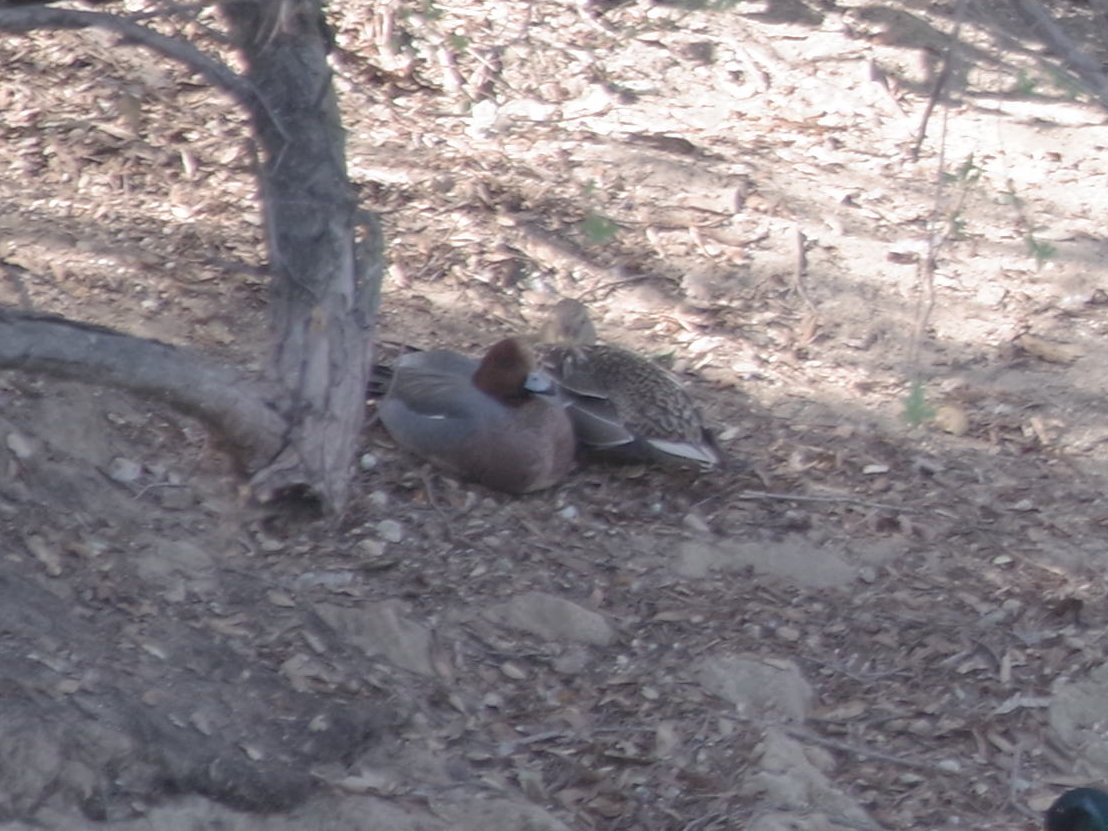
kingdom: Animalia
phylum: Chordata
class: Aves
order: Anseriformes
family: Anatidae
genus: Mareca
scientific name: Mareca penelope
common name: Eurasian wigeon
